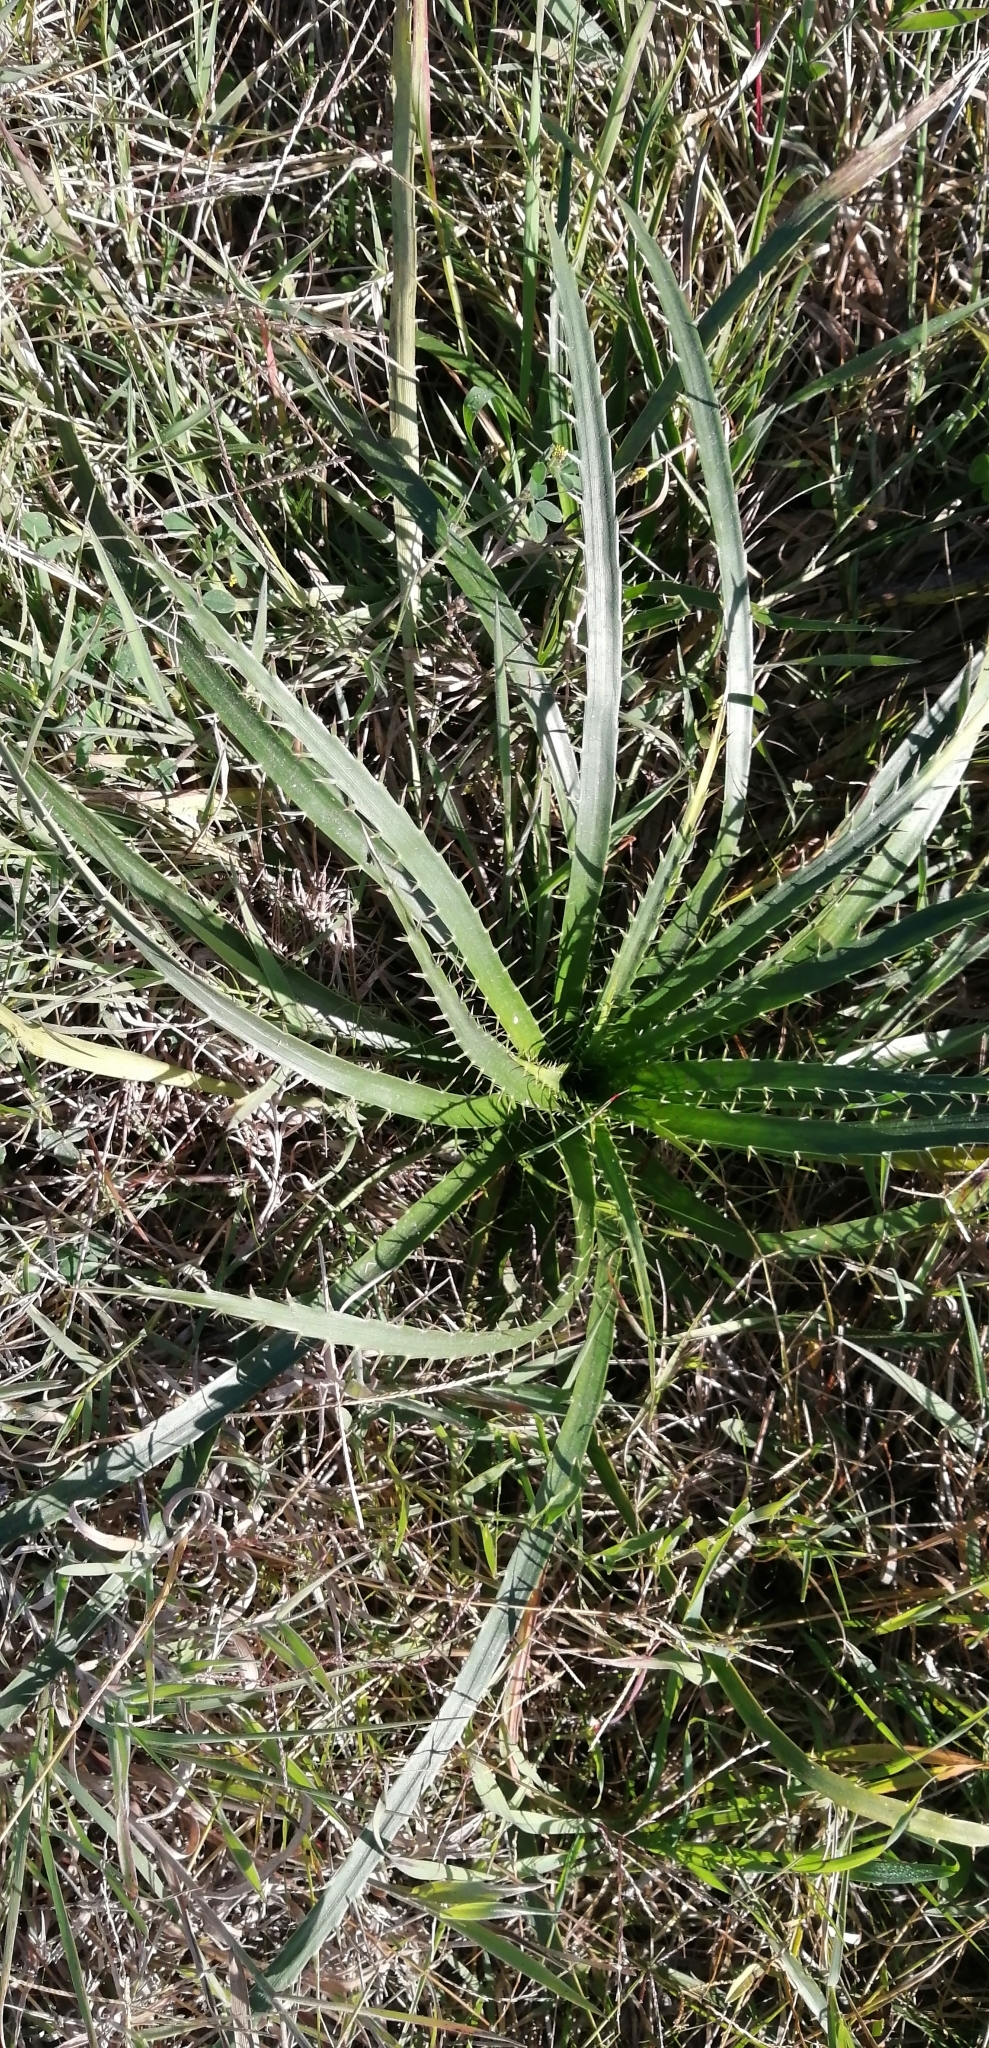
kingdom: Plantae
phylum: Tracheophyta
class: Magnoliopsida
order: Apiales
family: Apiaceae
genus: Eryngium
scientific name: Eryngium horridum
